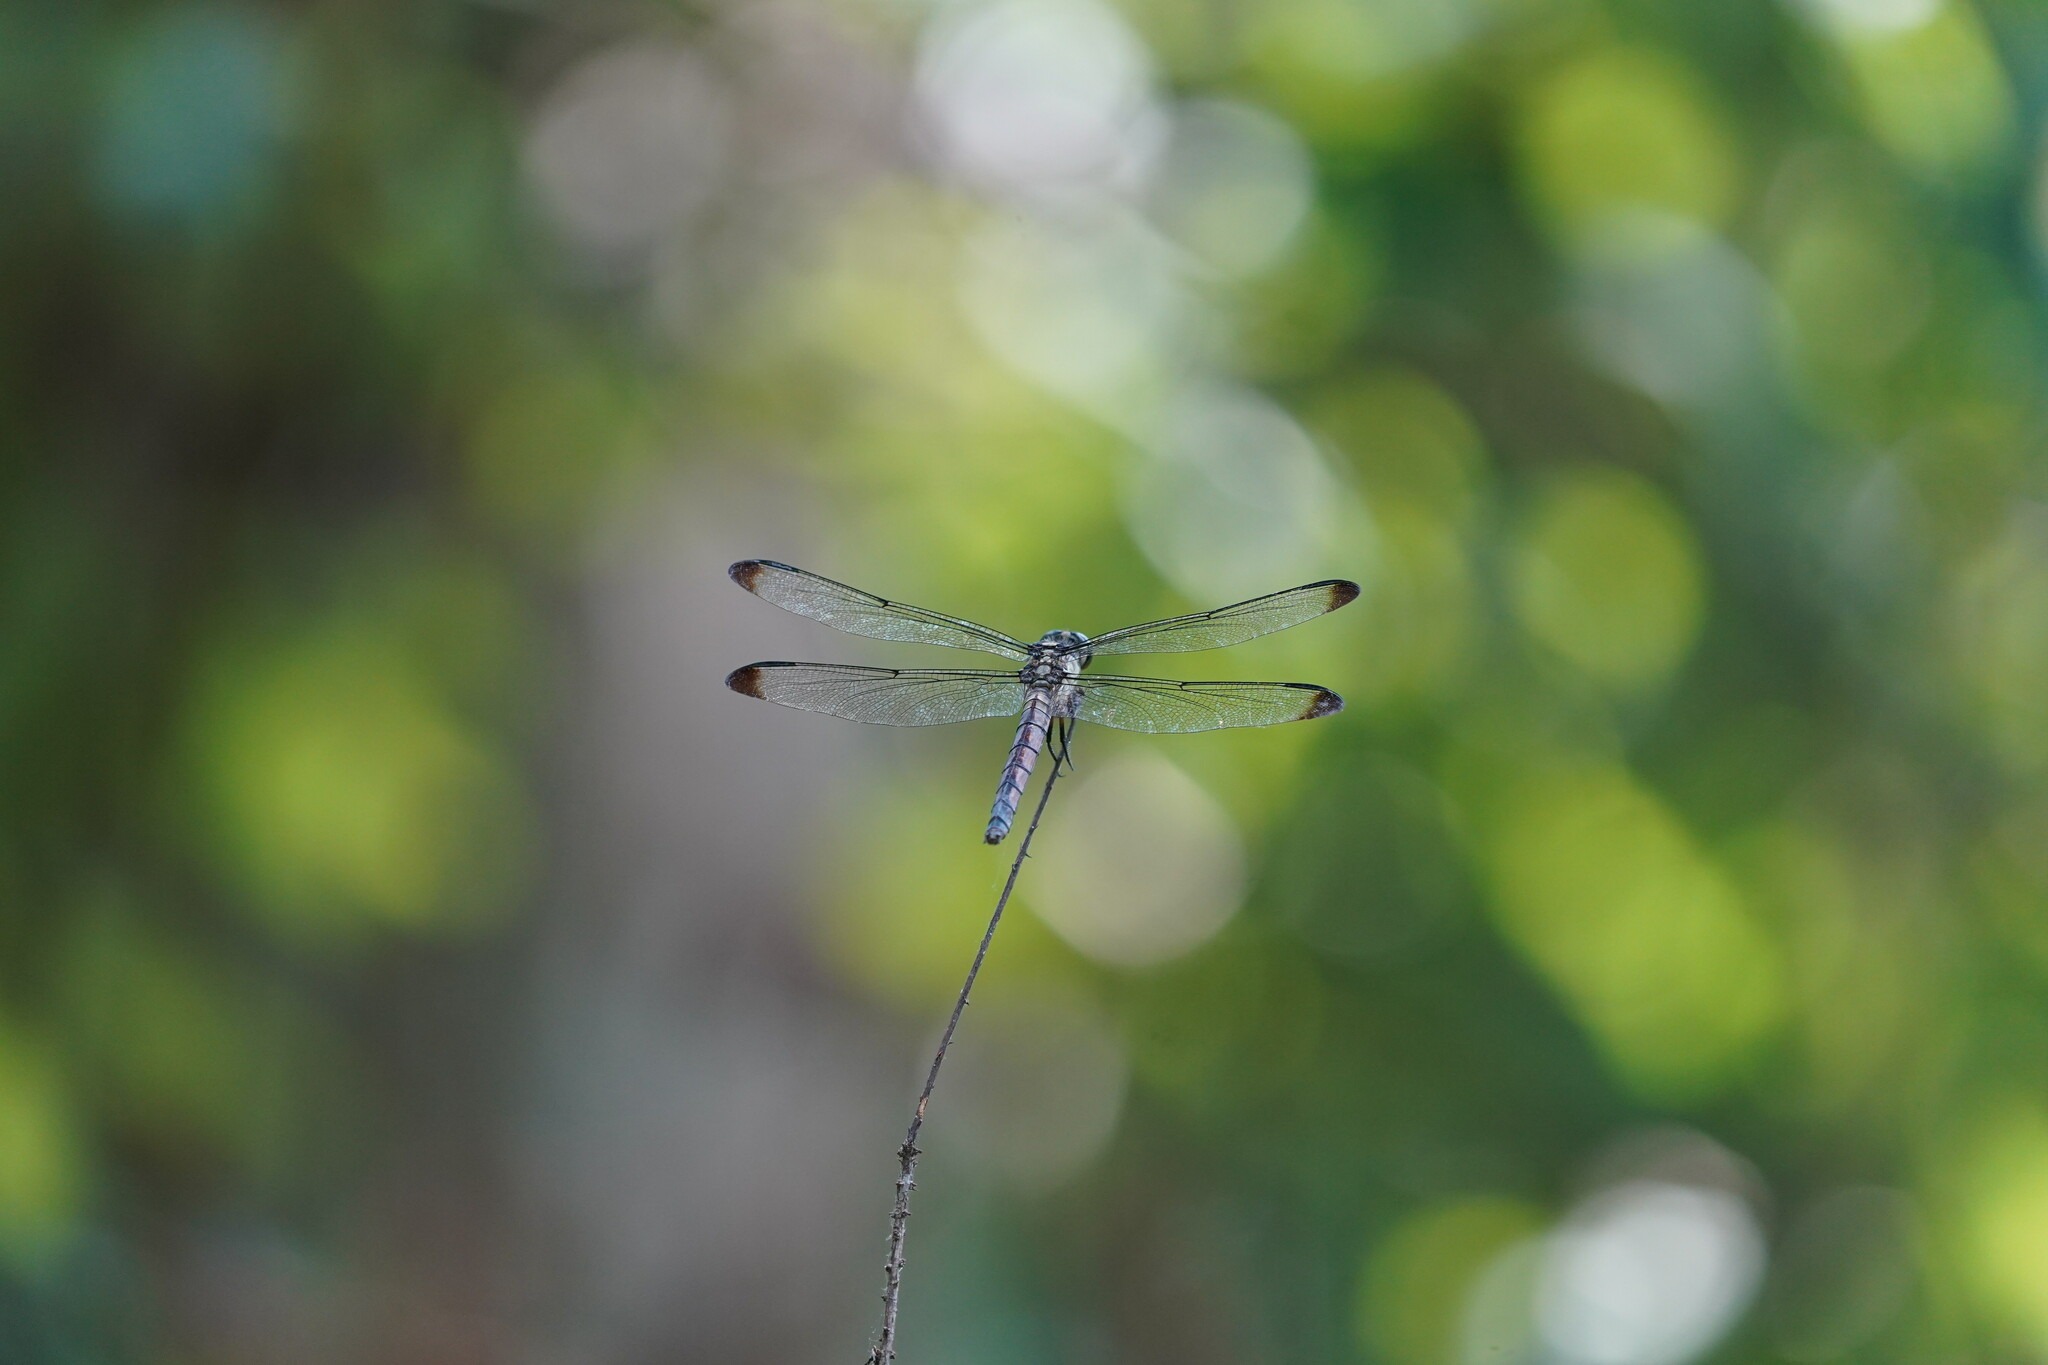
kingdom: Animalia
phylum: Arthropoda
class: Insecta
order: Odonata
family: Libellulidae
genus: Libellula
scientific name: Libellula vibrans
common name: Great blue skimmer
